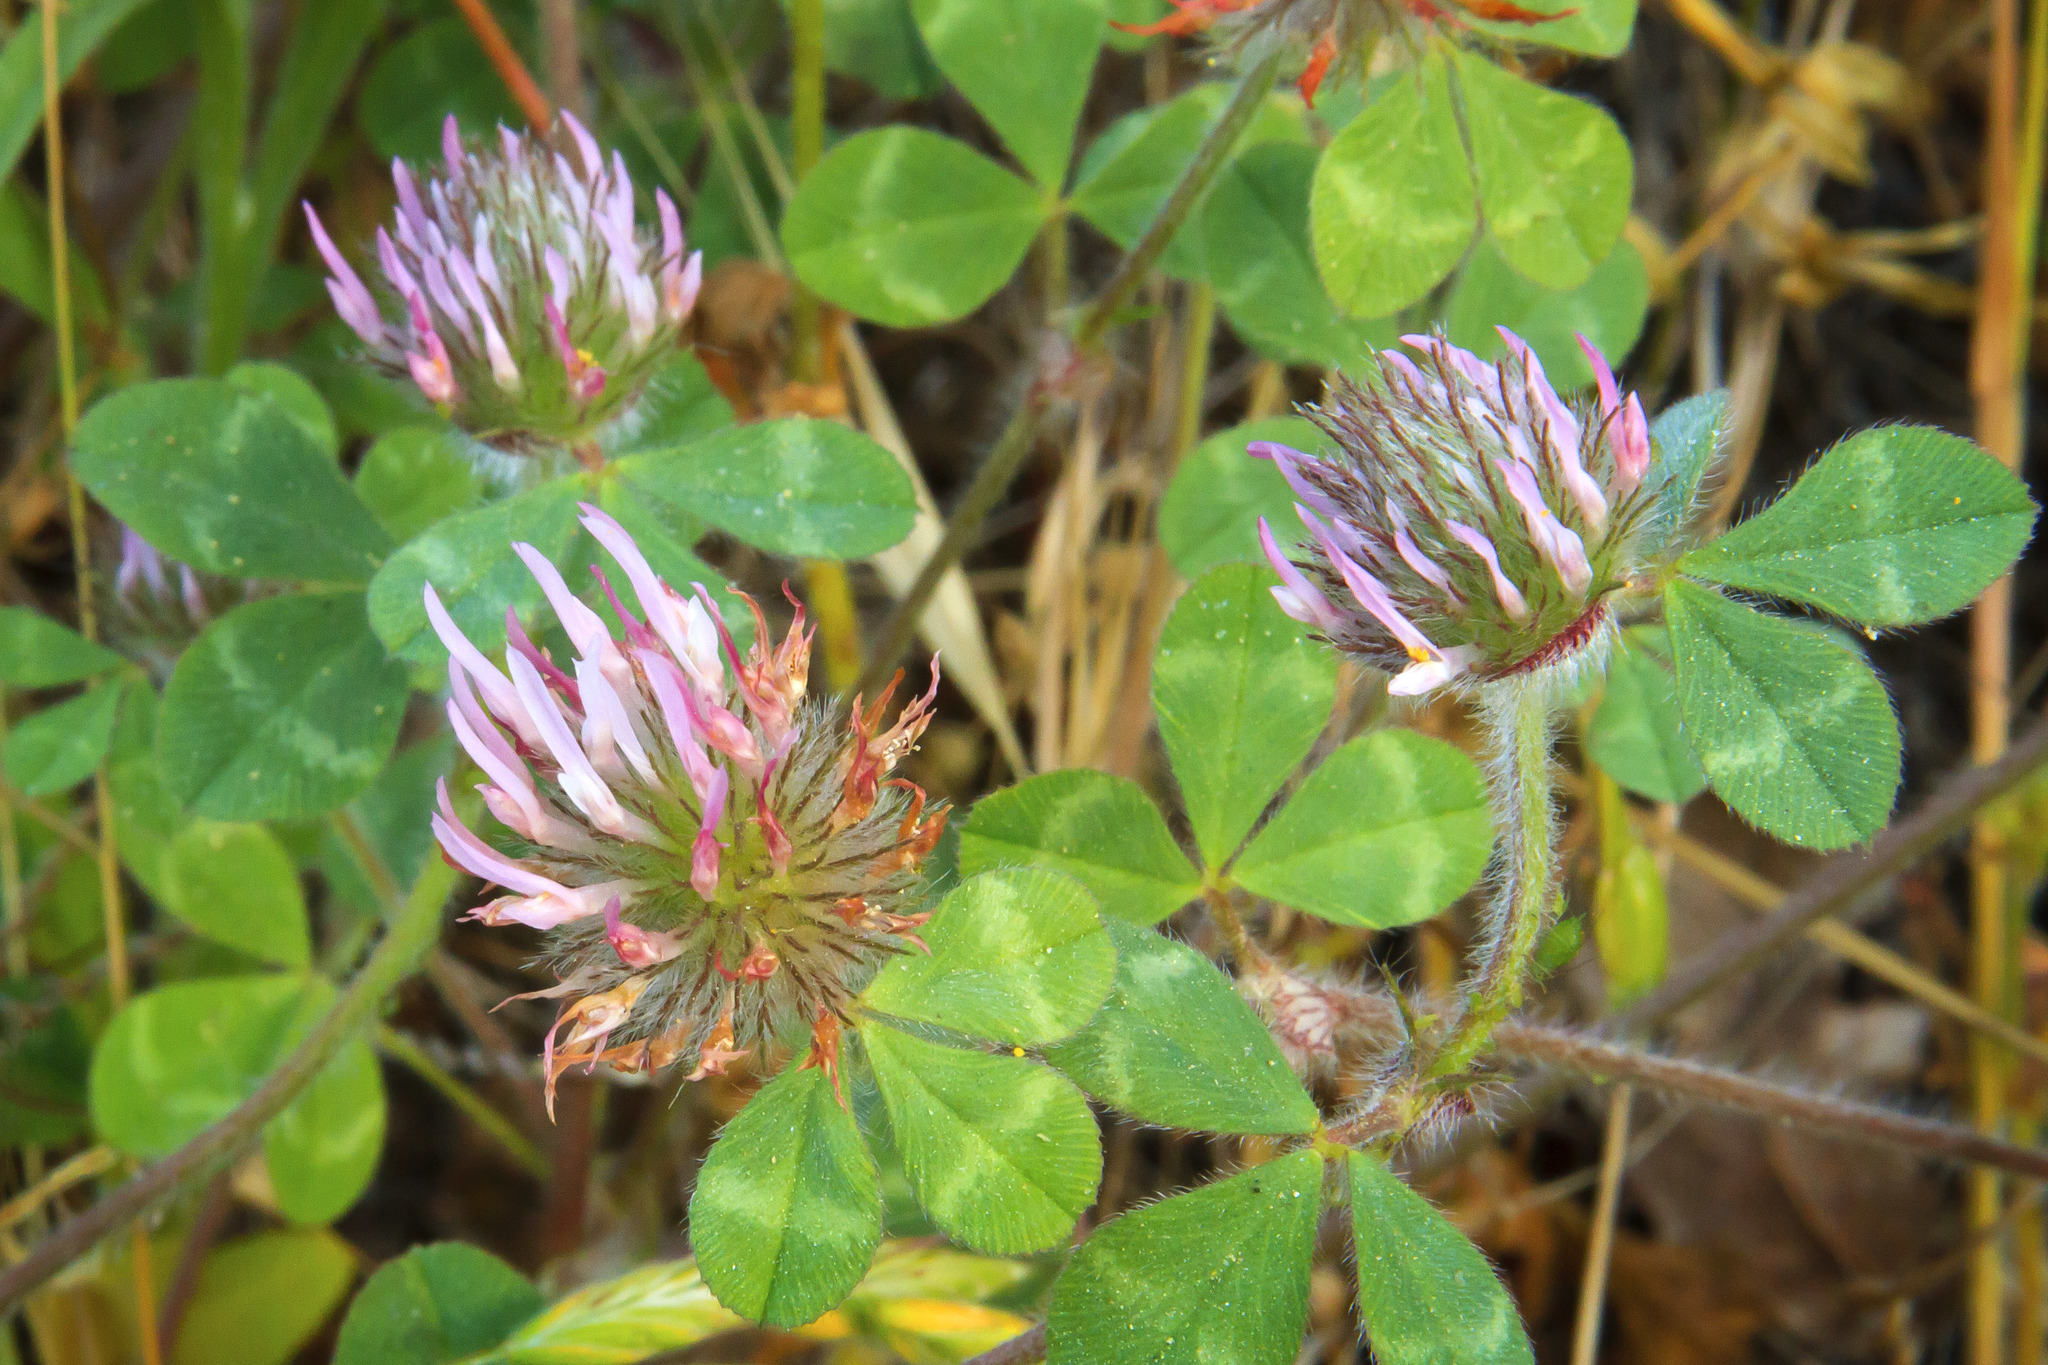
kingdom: Plantae
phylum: Tracheophyta
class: Magnoliopsida
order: Fabales
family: Fabaceae
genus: Trifolium
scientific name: Trifolium hirtum
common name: Rose clover
